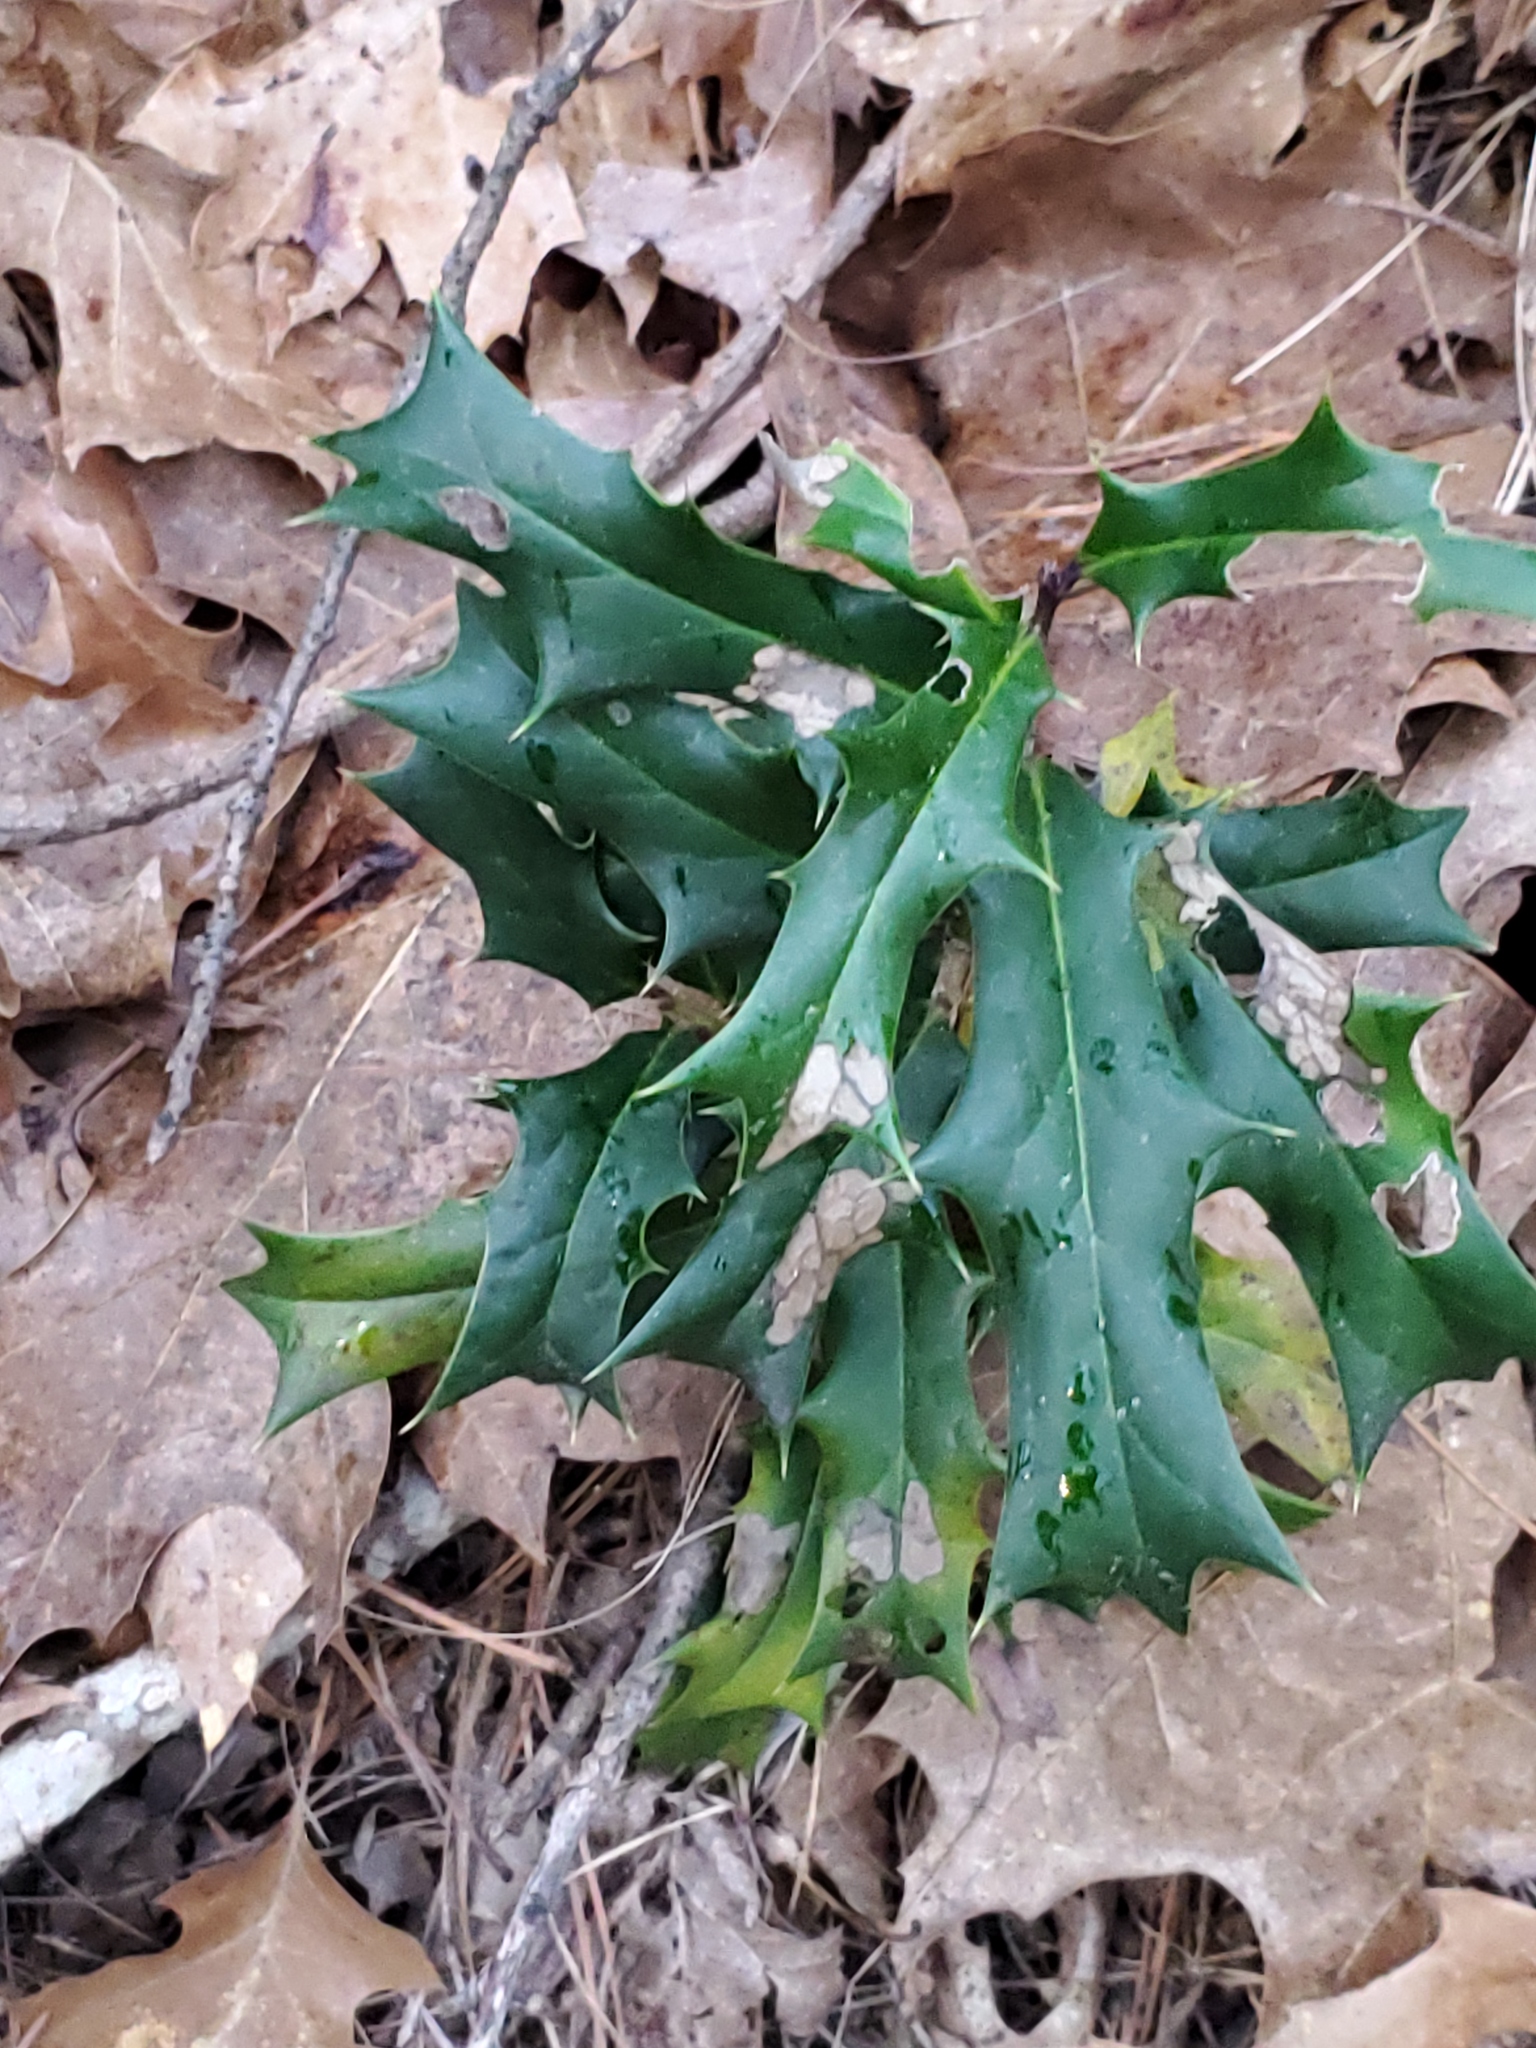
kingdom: Plantae
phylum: Tracheophyta
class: Magnoliopsida
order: Aquifoliales
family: Aquifoliaceae
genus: Ilex
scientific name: Ilex cornuta
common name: Chinese holly
